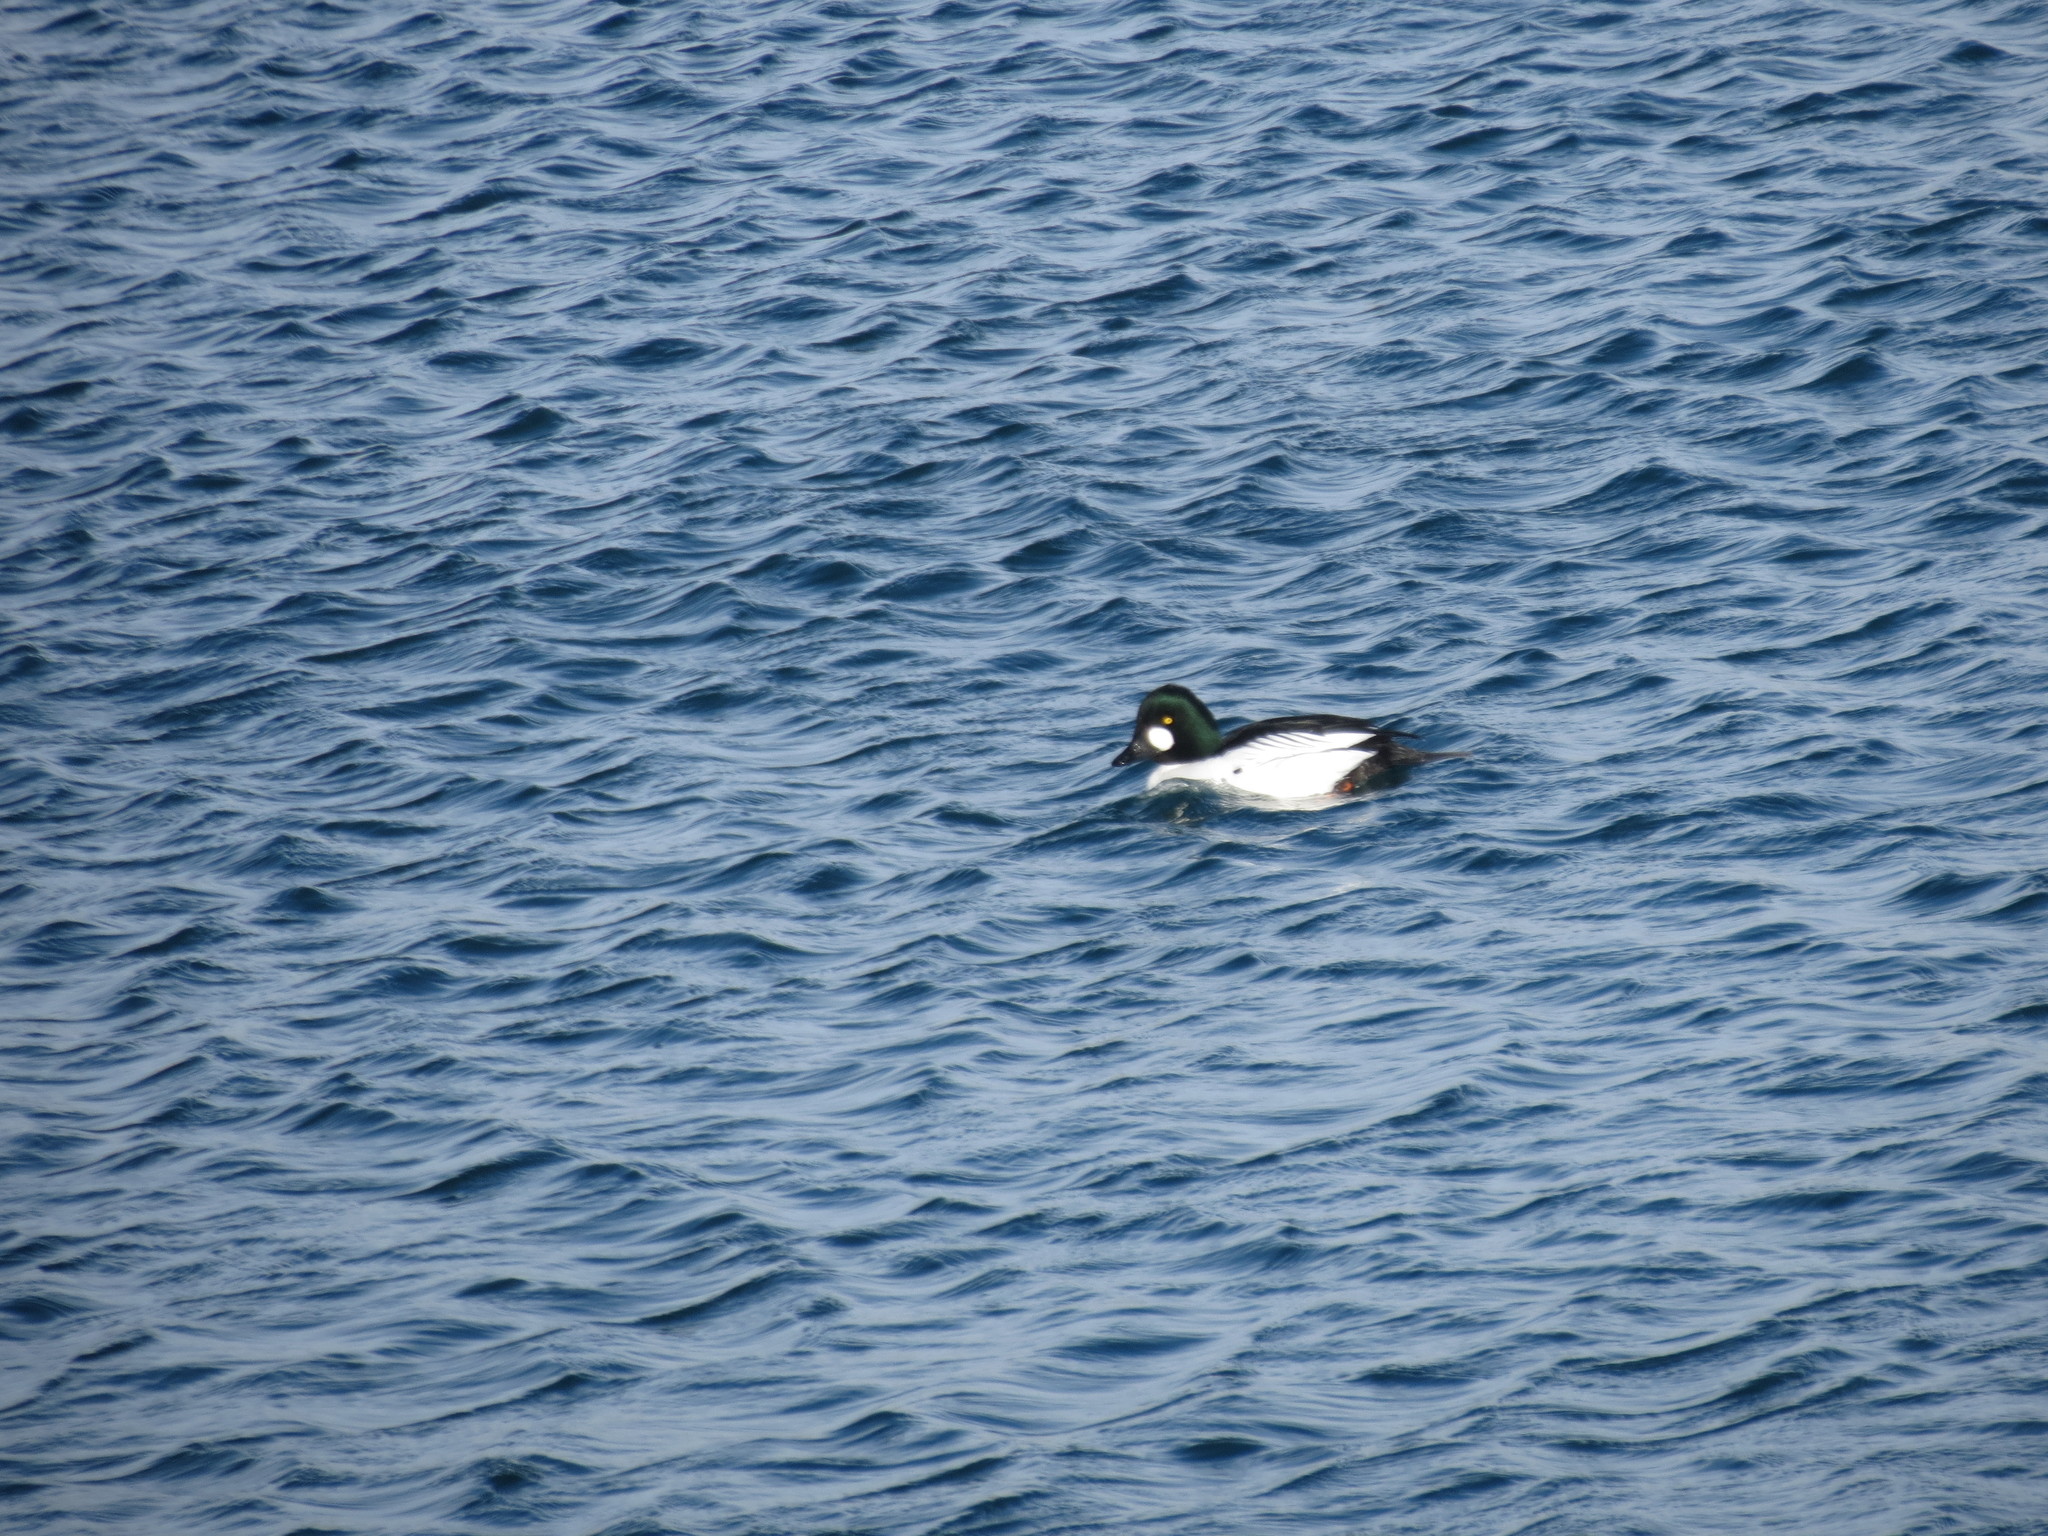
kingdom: Animalia
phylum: Chordata
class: Aves
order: Anseriformes
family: Anatidae
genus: Bucephala
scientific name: Bucephala clangula
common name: Common goldeneye
